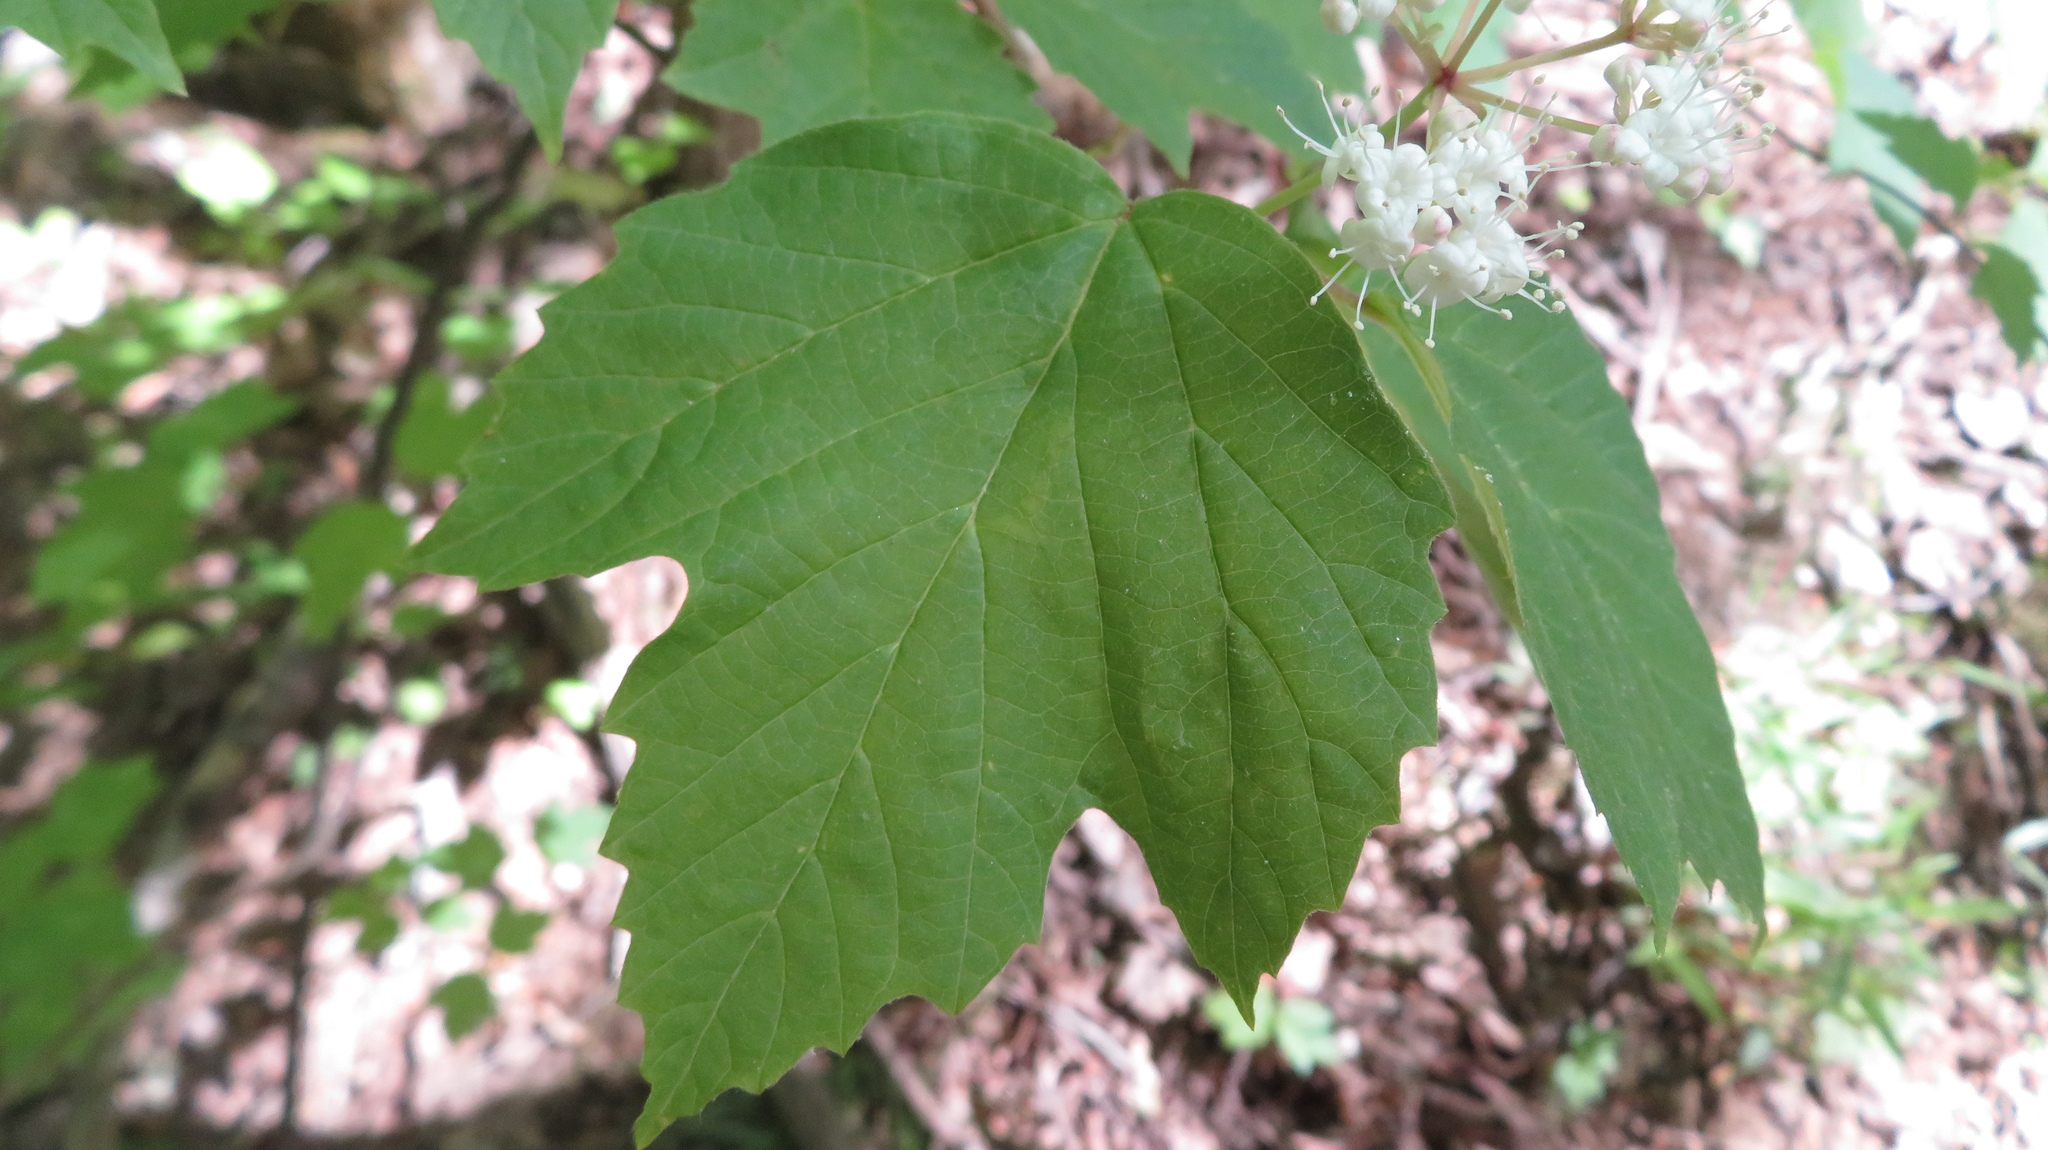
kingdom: Plantae
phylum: Tracheophyta
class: Magnoliopsida
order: Dipsacales
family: Viburnaceae
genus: Viburnum
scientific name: Viburnum acerifolium
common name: Dockmackie
